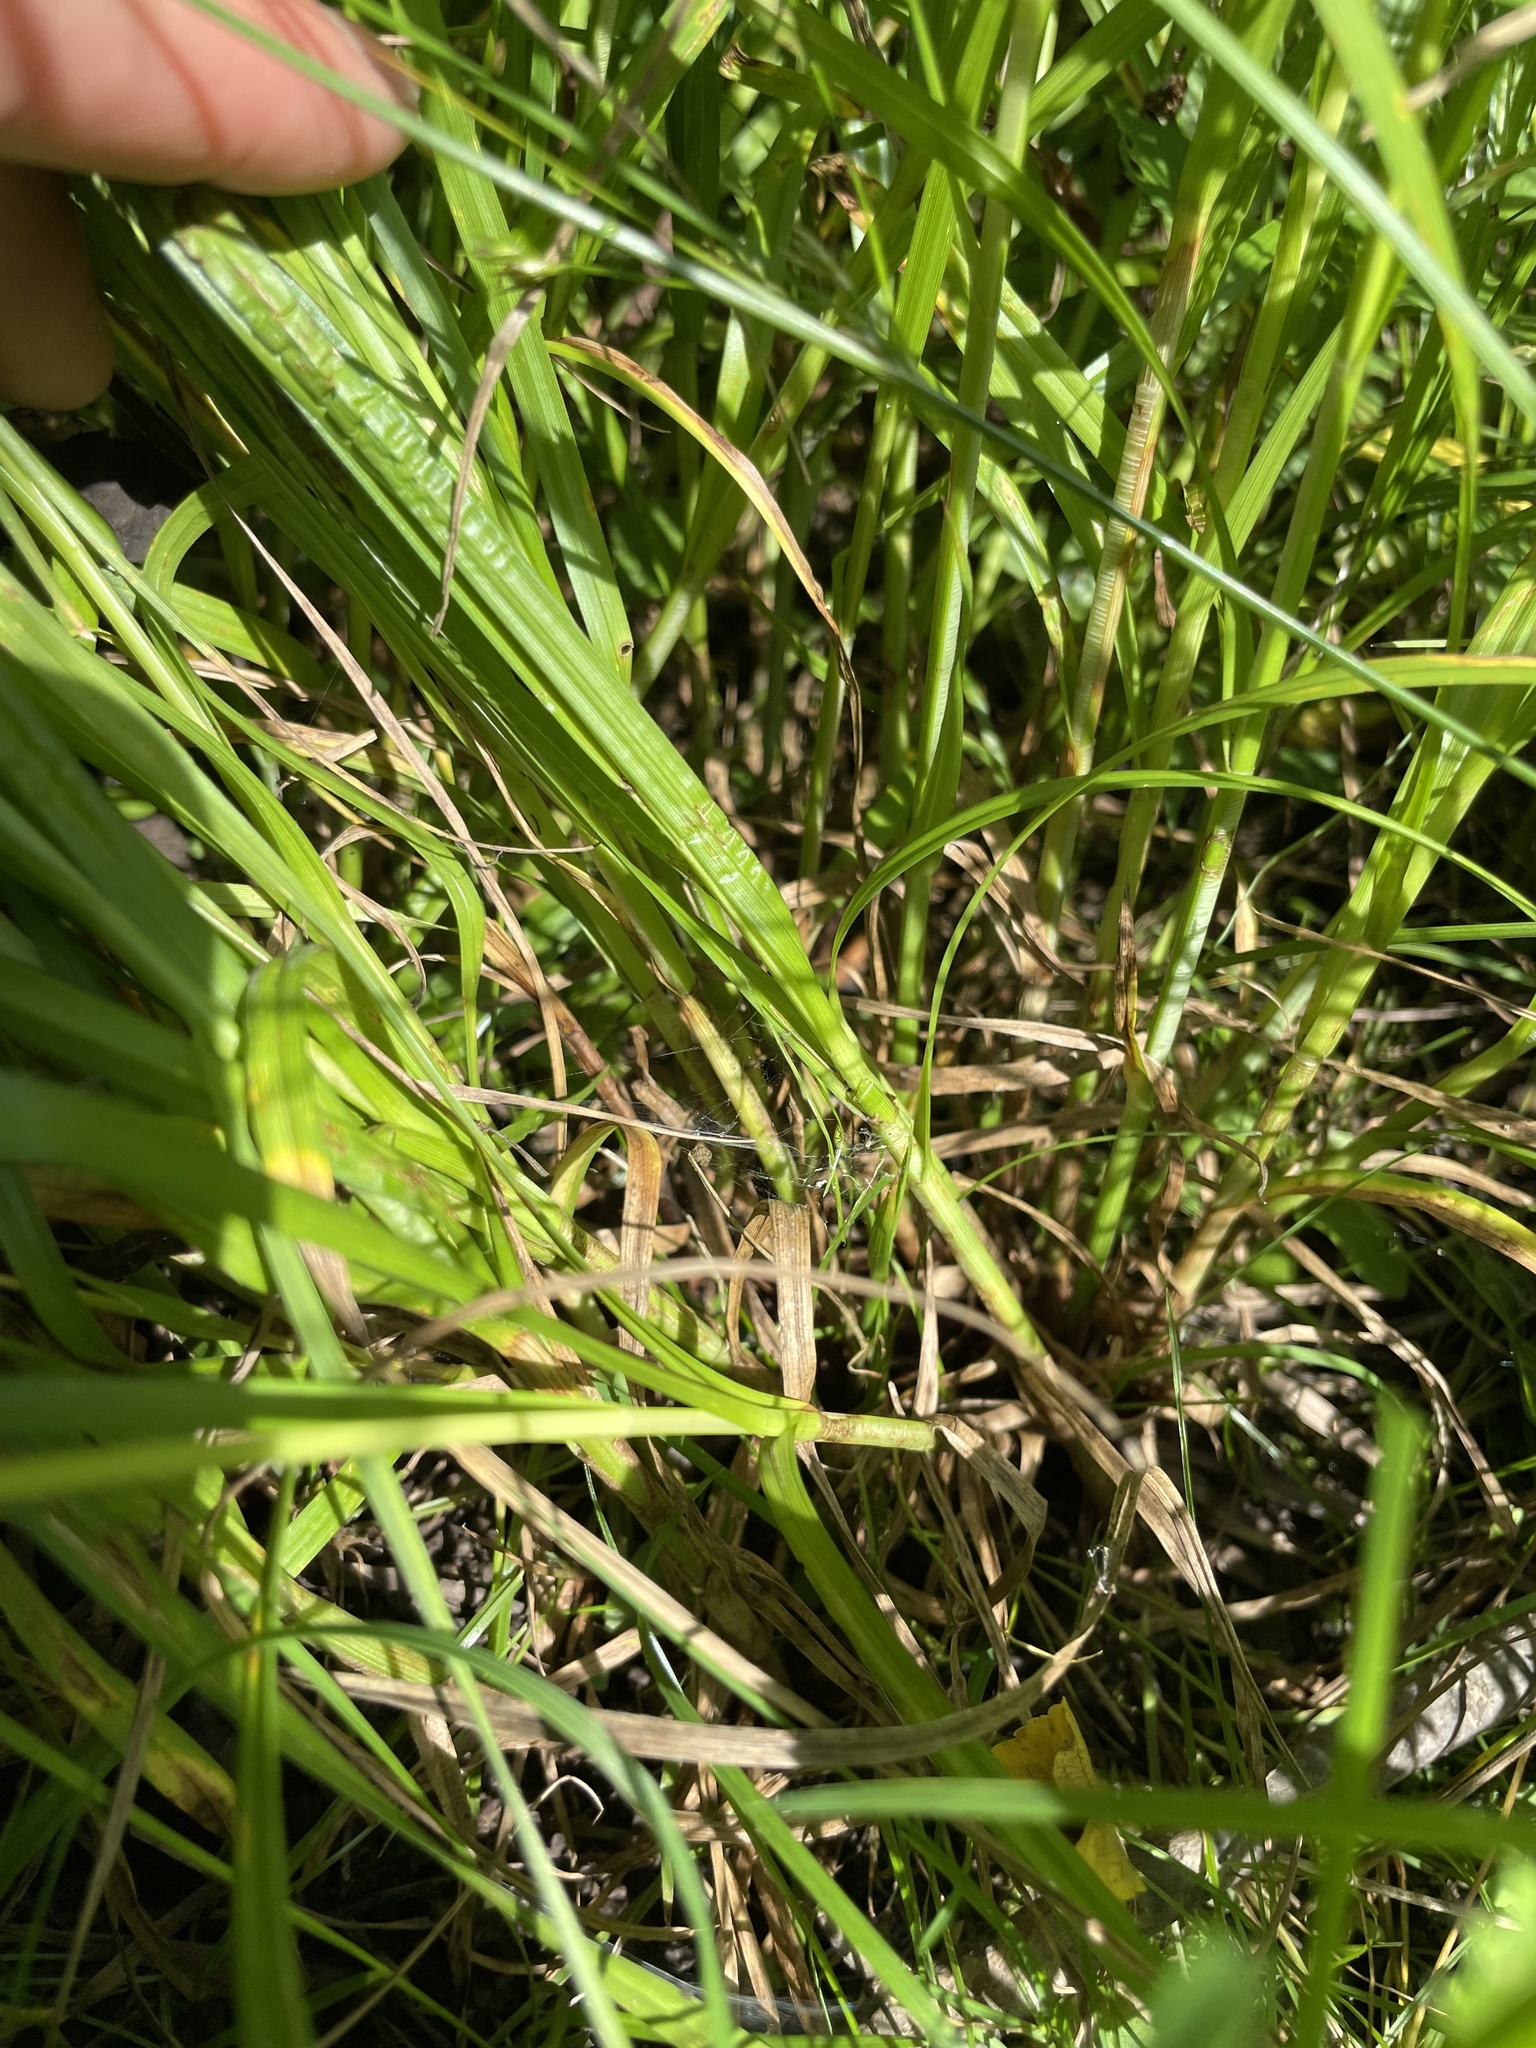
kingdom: Plantae
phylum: Tracheophyta
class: Liliopsida
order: Poales
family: Cyperaceae
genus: Carex
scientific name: Carex vulpinoidea
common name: American fox-sedge
